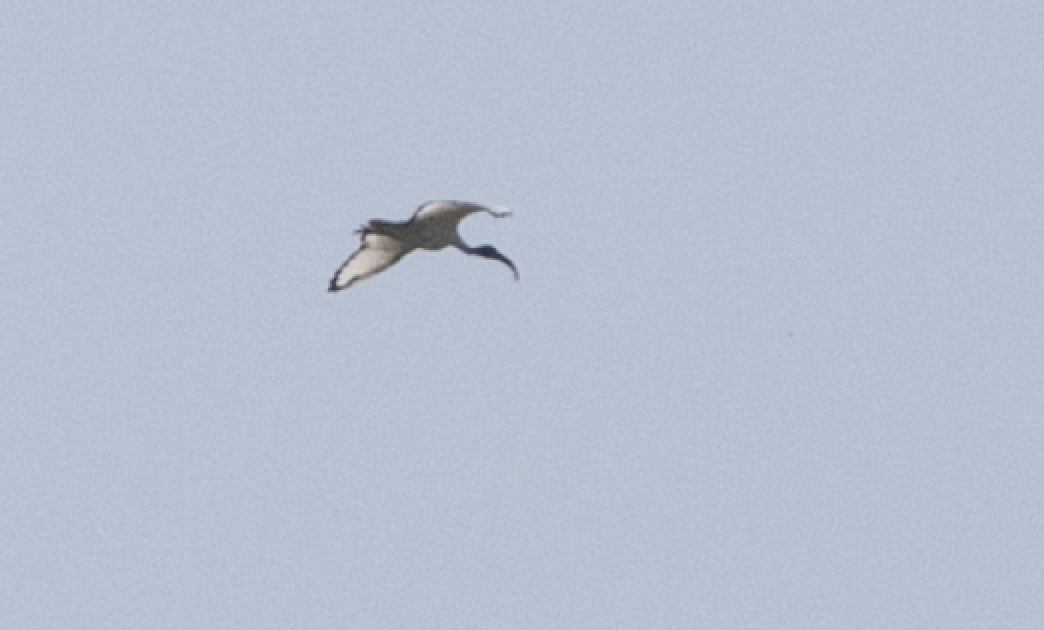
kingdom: Animalia
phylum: Chordata
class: Aves
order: Pelecaniformes
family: Threskiornithidae
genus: Threskiornis
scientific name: Threskiornis aethiopicus
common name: Sacred ibis
